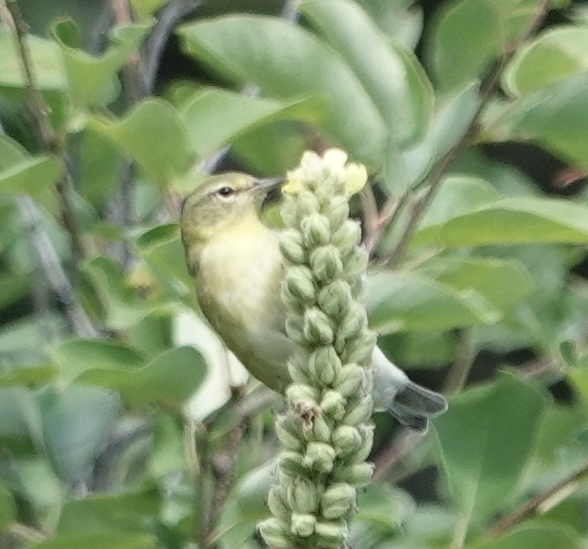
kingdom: Animalia
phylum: Chordata
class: Aves
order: Passeriformes
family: Parulidae
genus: Leiothlypis
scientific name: Leiothlypis peregrina
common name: Tennessee warbler
